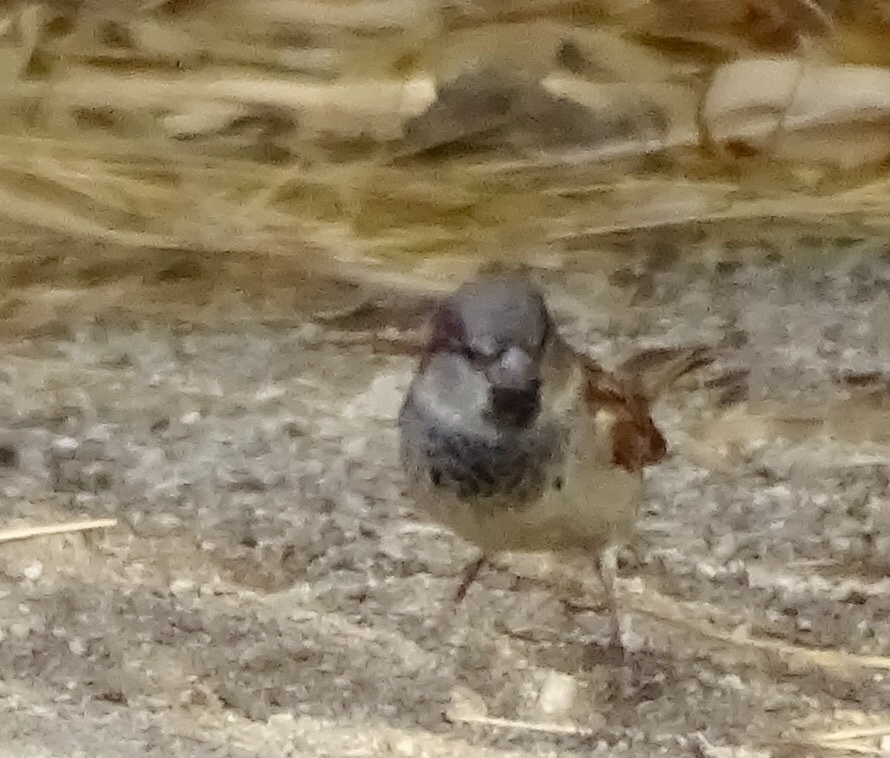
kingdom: Animalia
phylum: Chordata
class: Aves
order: Passeriformes
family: Passeridae
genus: Passer
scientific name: Passer domesticus
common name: House sparrow
